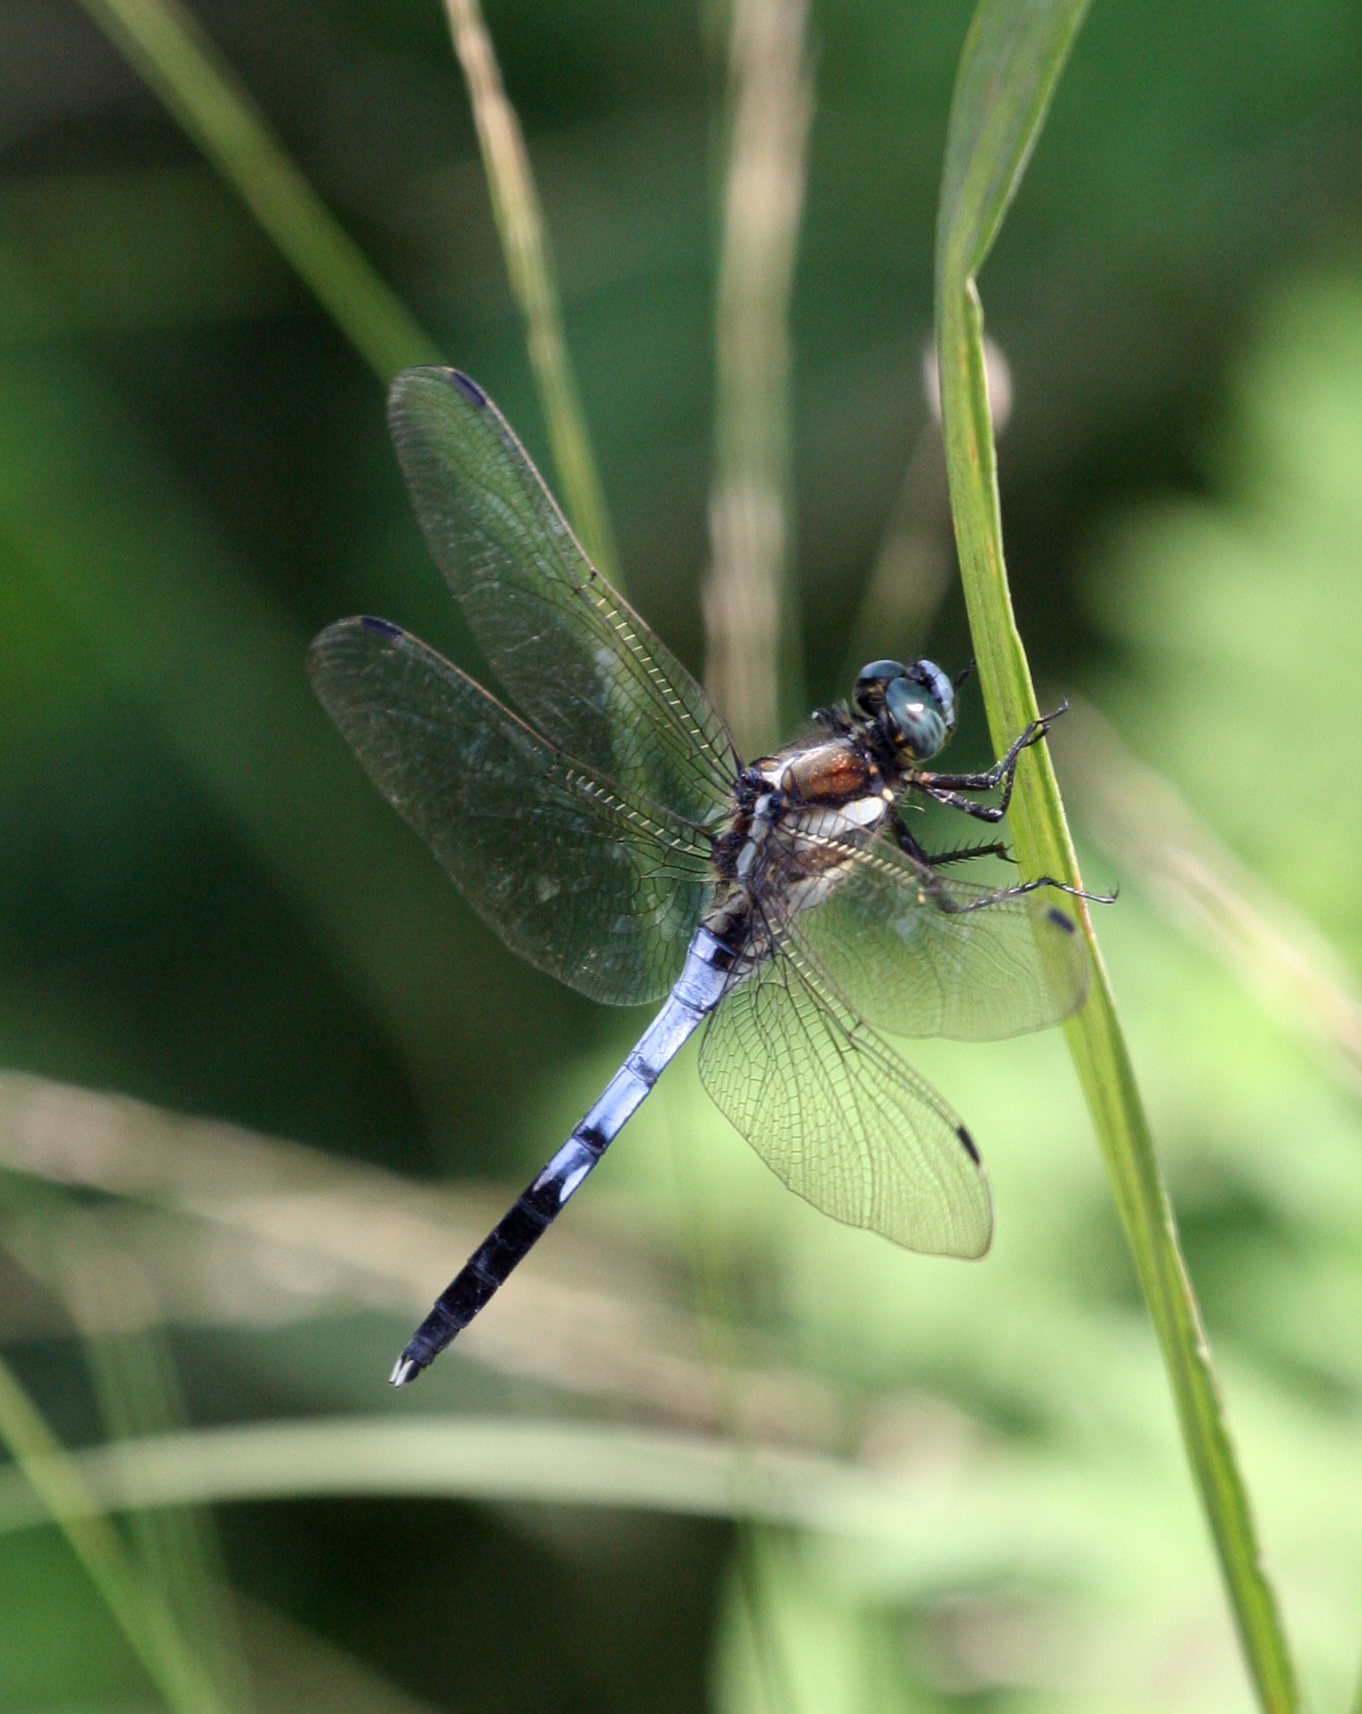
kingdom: Animalia
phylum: Arthropoda
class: Insecta
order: Odonata
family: Libellulidae
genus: Orthetrum
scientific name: Orthetrum albistylum
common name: White-tailed skimmer
